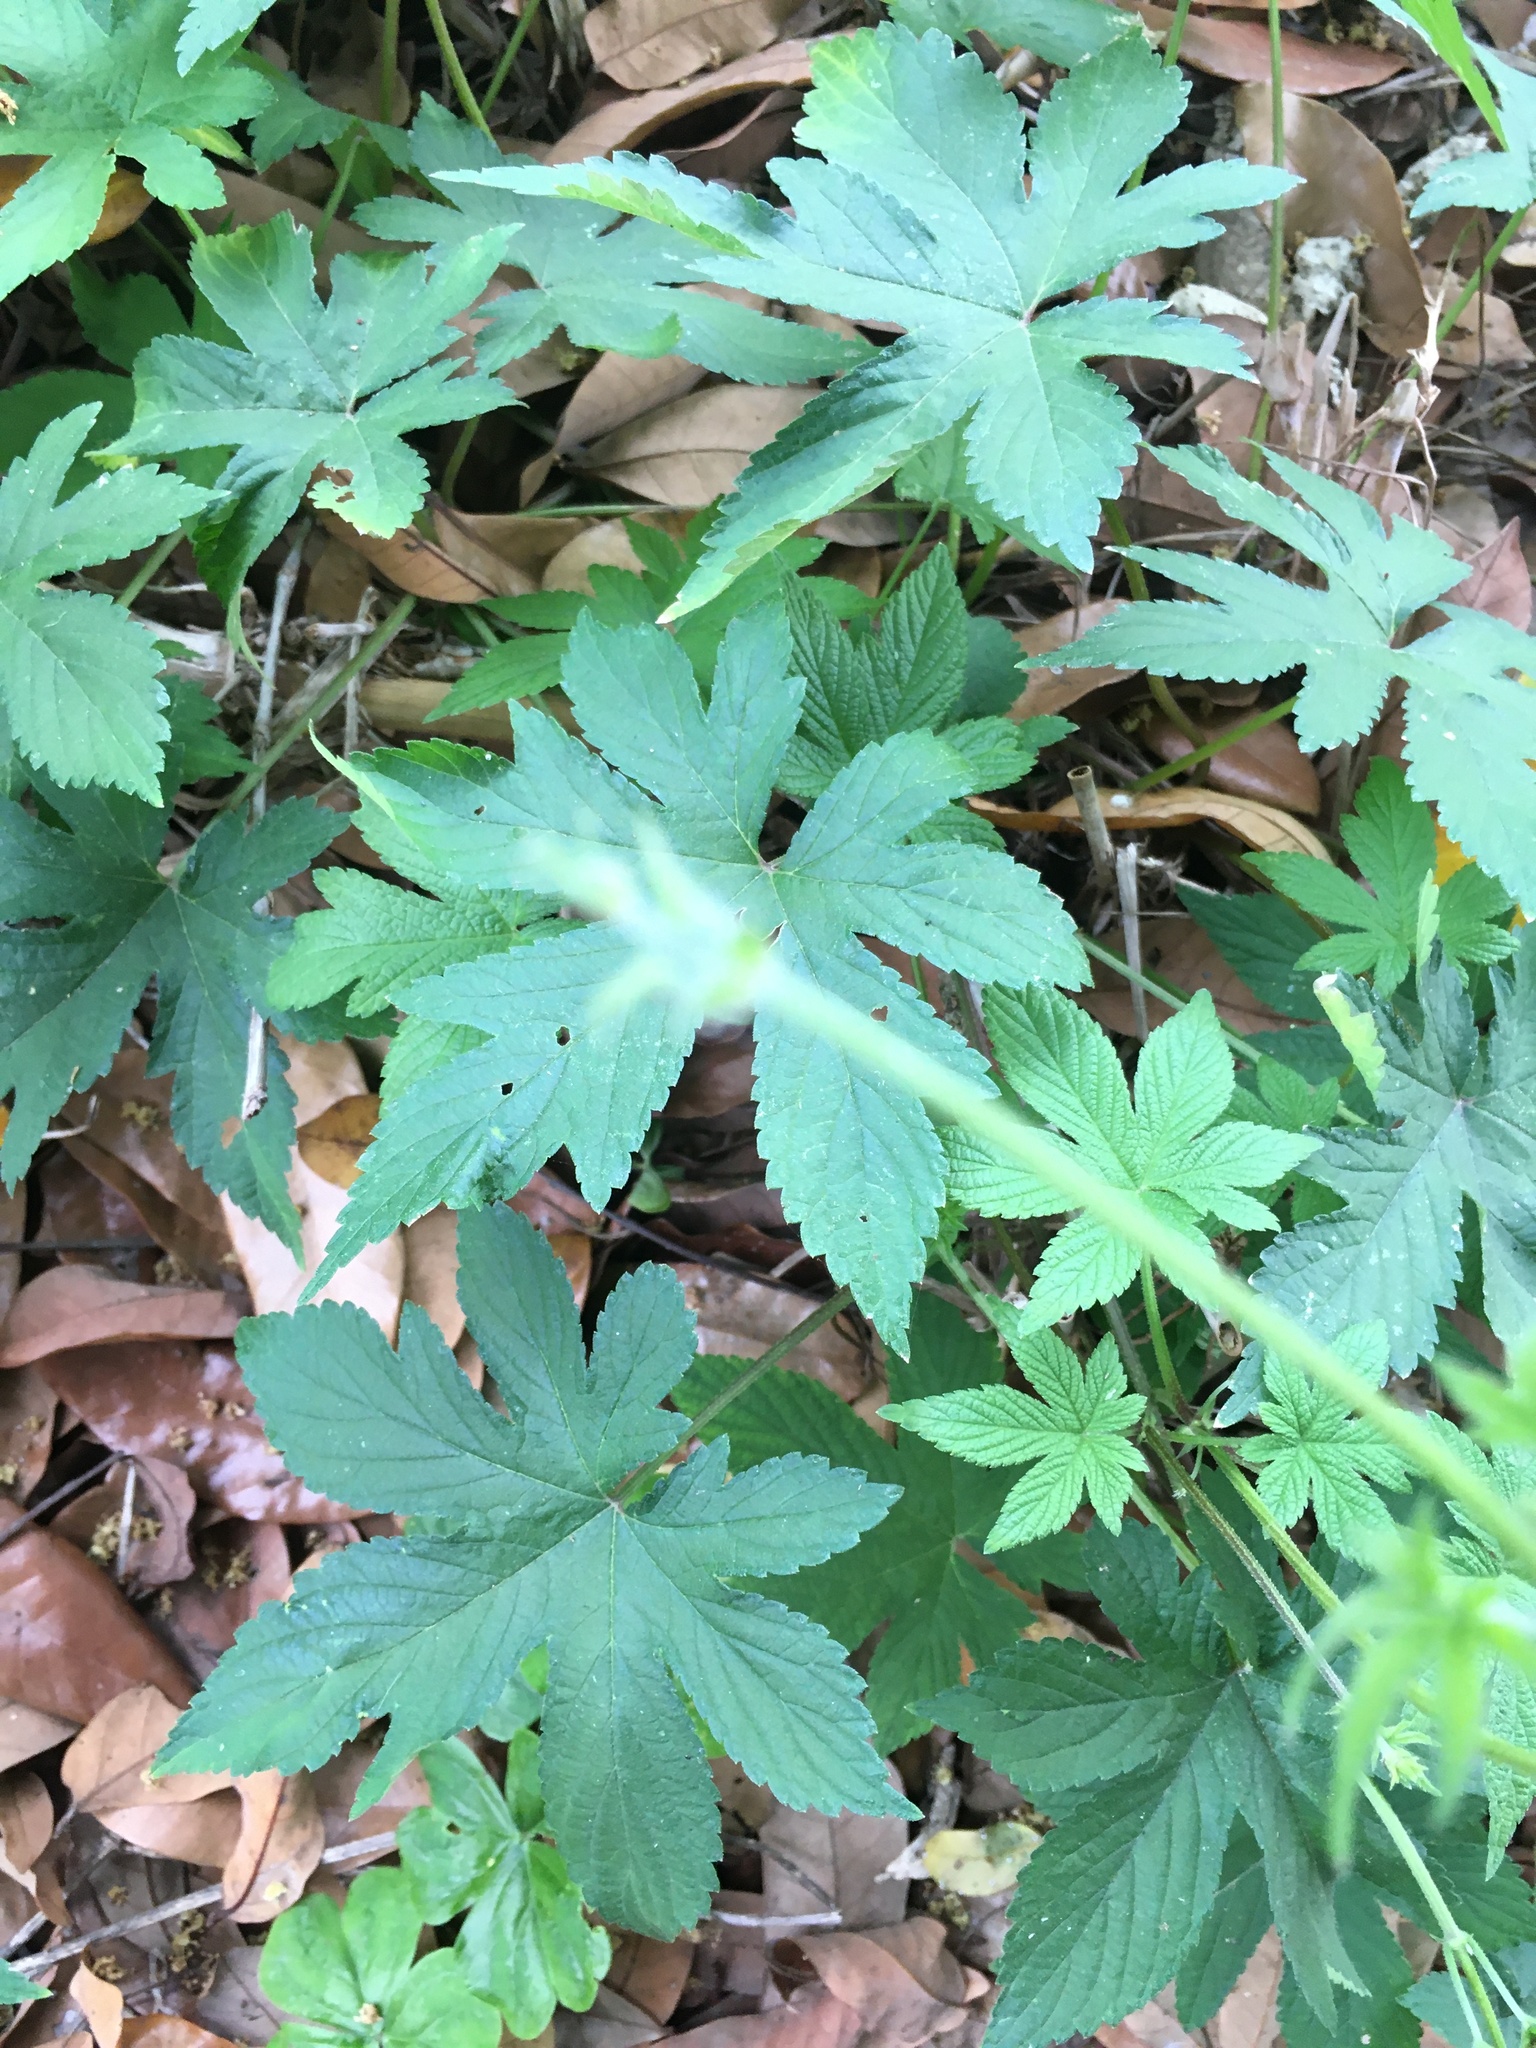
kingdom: Plantae
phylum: Tracheophyta
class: Magnoliopsida
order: Rosales
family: Cannabaceae
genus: Humulus
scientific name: Humulus scandens
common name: Japanese hop
